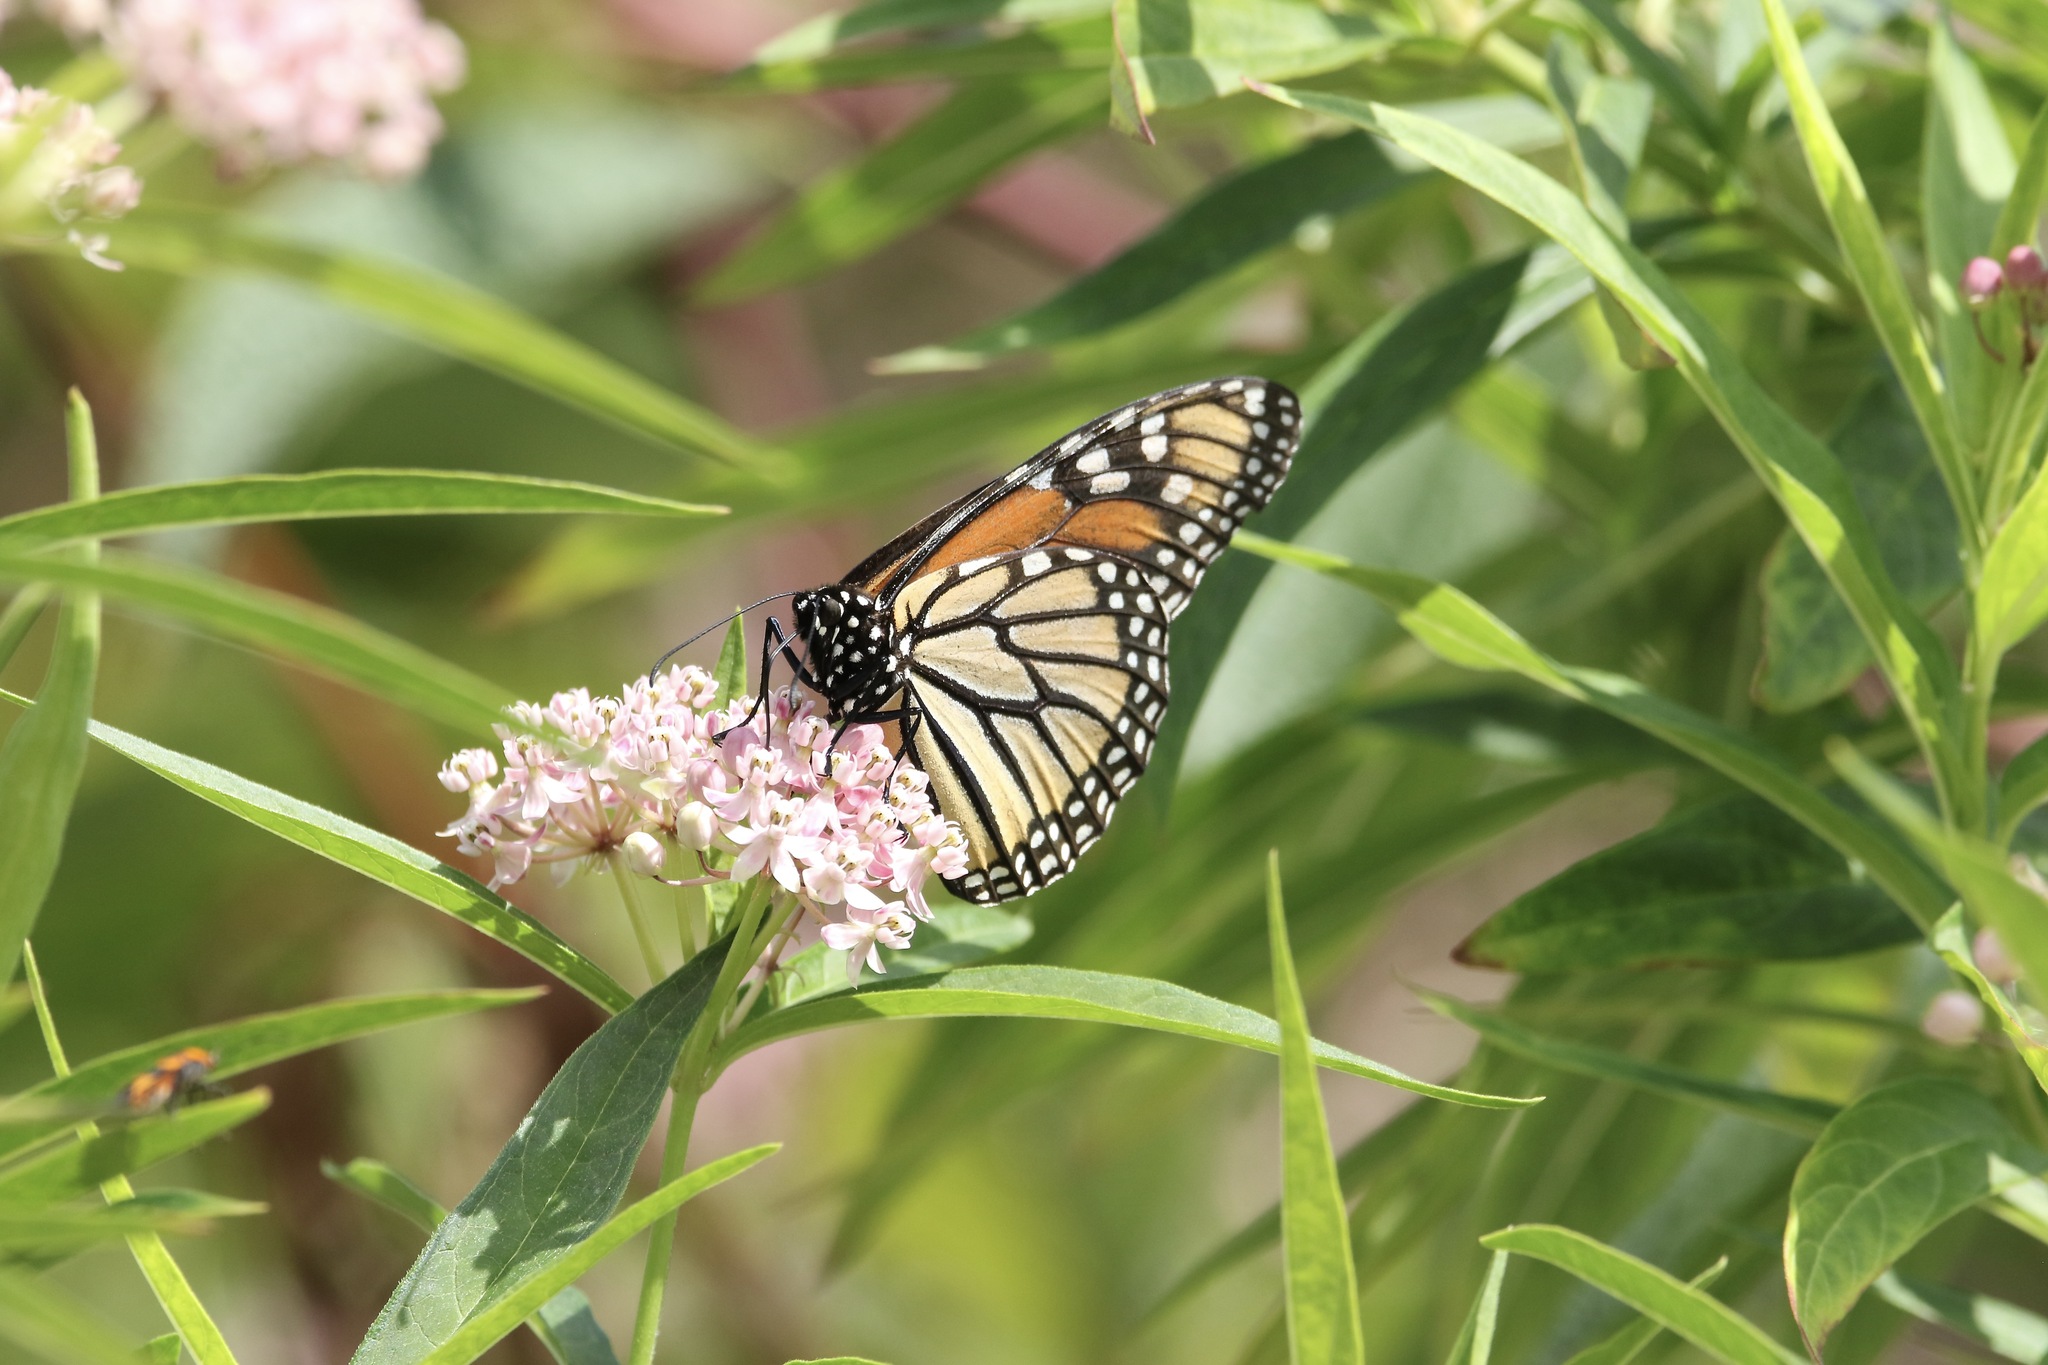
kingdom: Animalia
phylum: Arthropoda
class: Insecta
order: Lepidoptera
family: Nymphalidae
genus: Danaus
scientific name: Danaus plexippus
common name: Monarch
